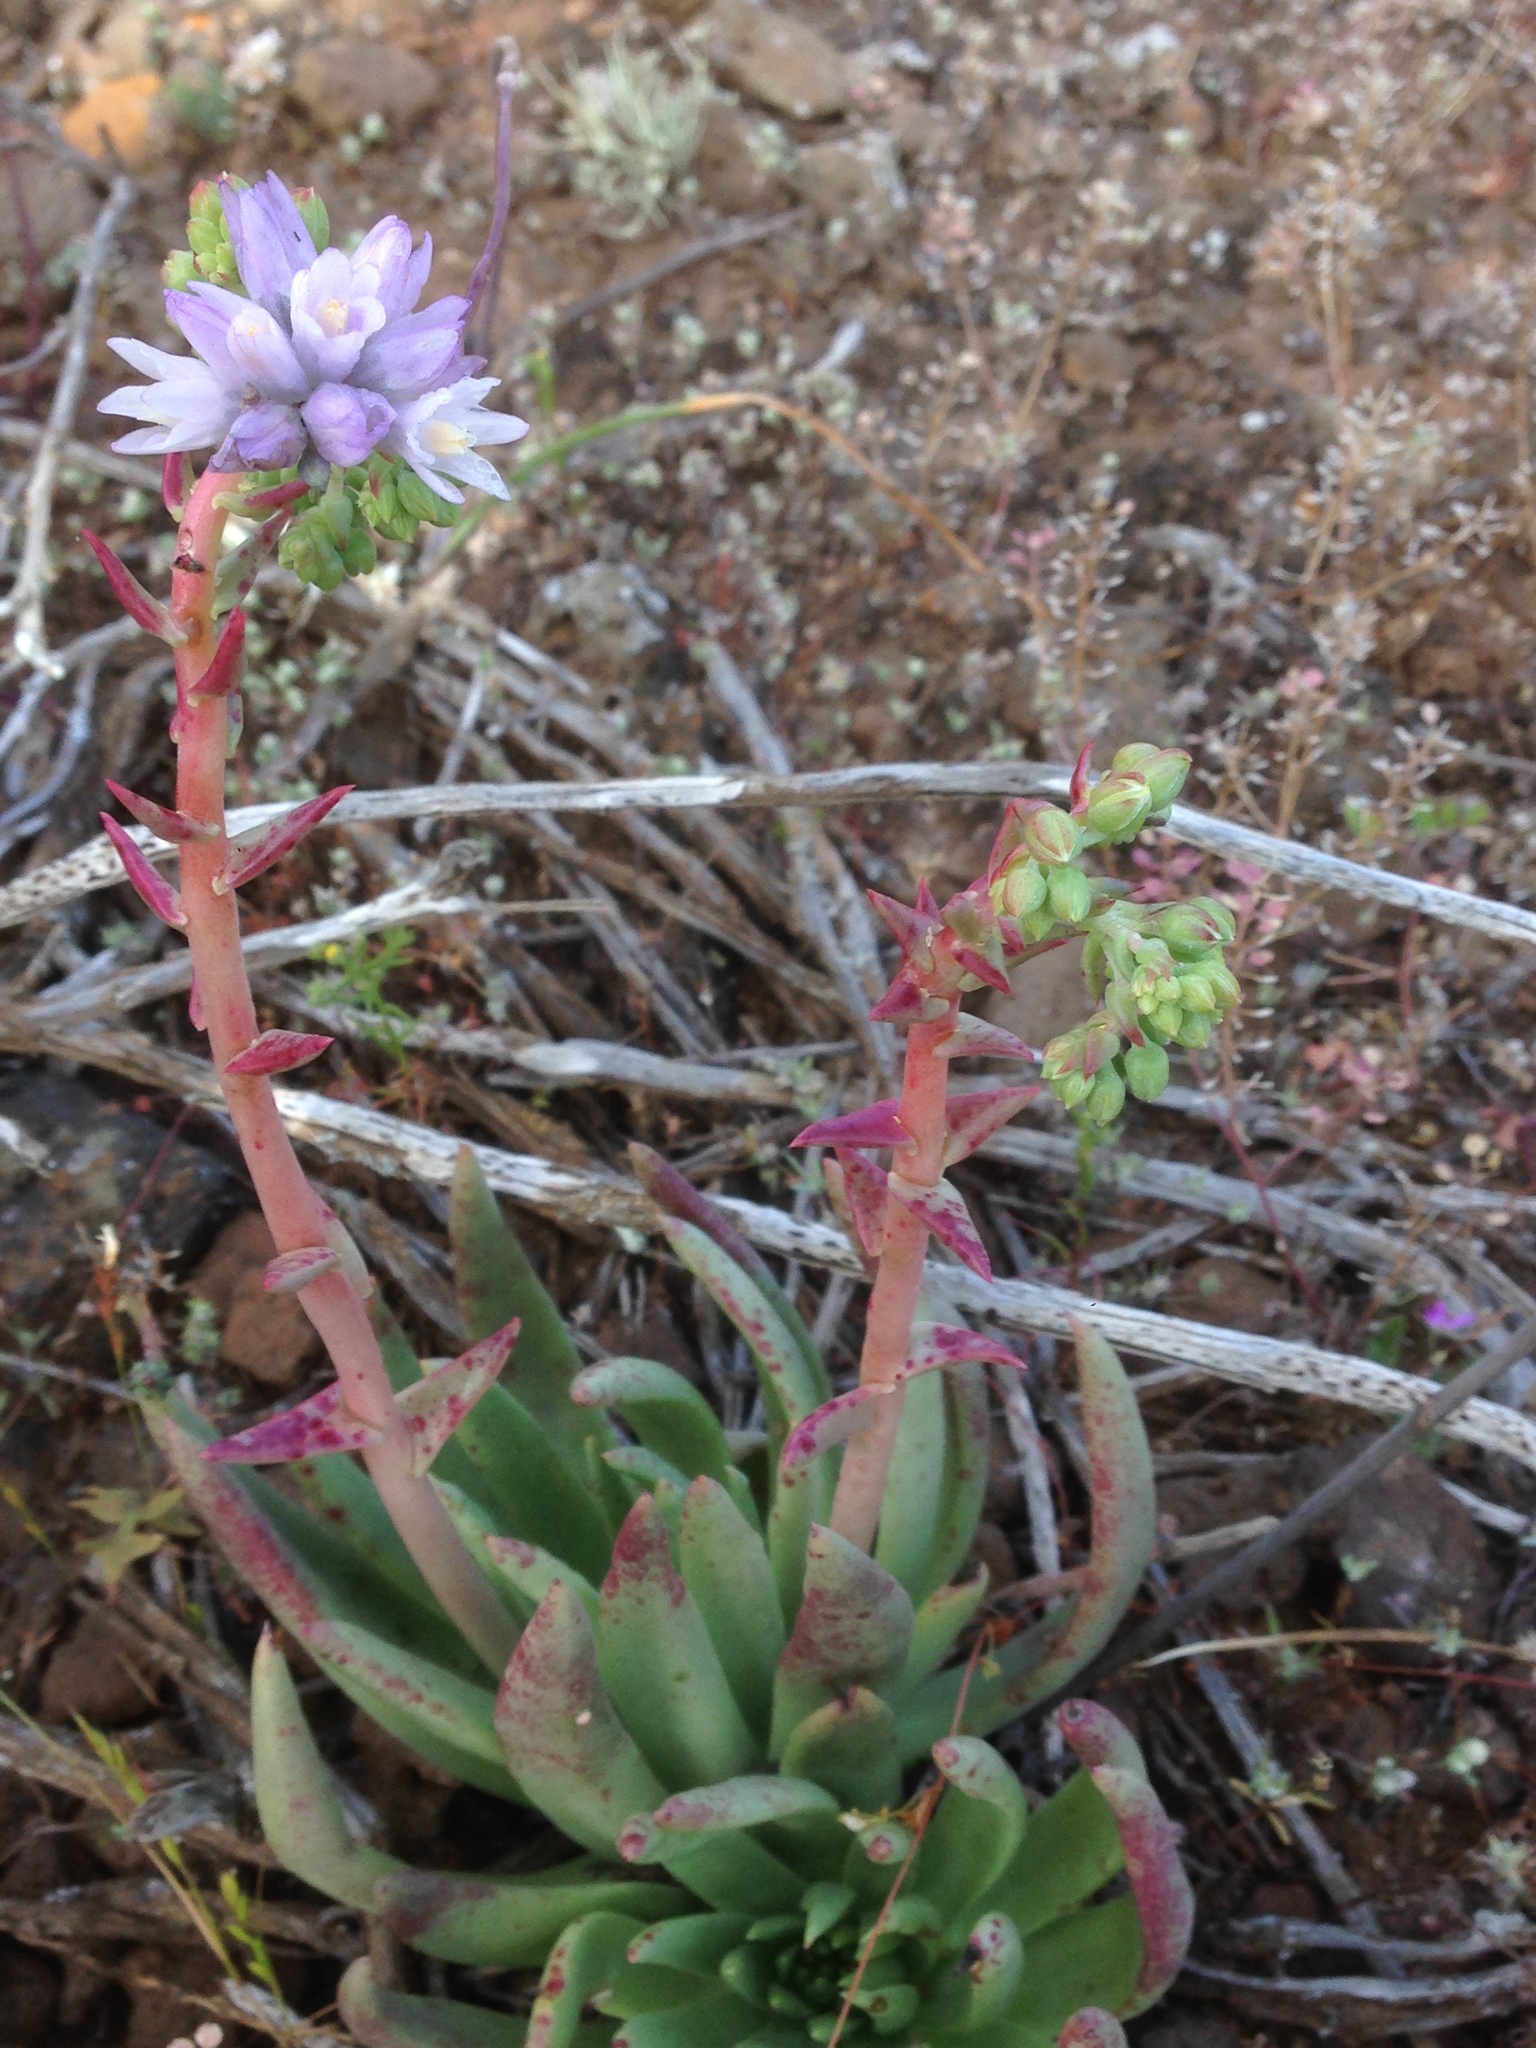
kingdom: Plantae
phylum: Tracheophyta
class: Magnoliopsida
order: Saxifragales
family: Crassulaceae
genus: Dudleya
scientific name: Dudleya cultrata
